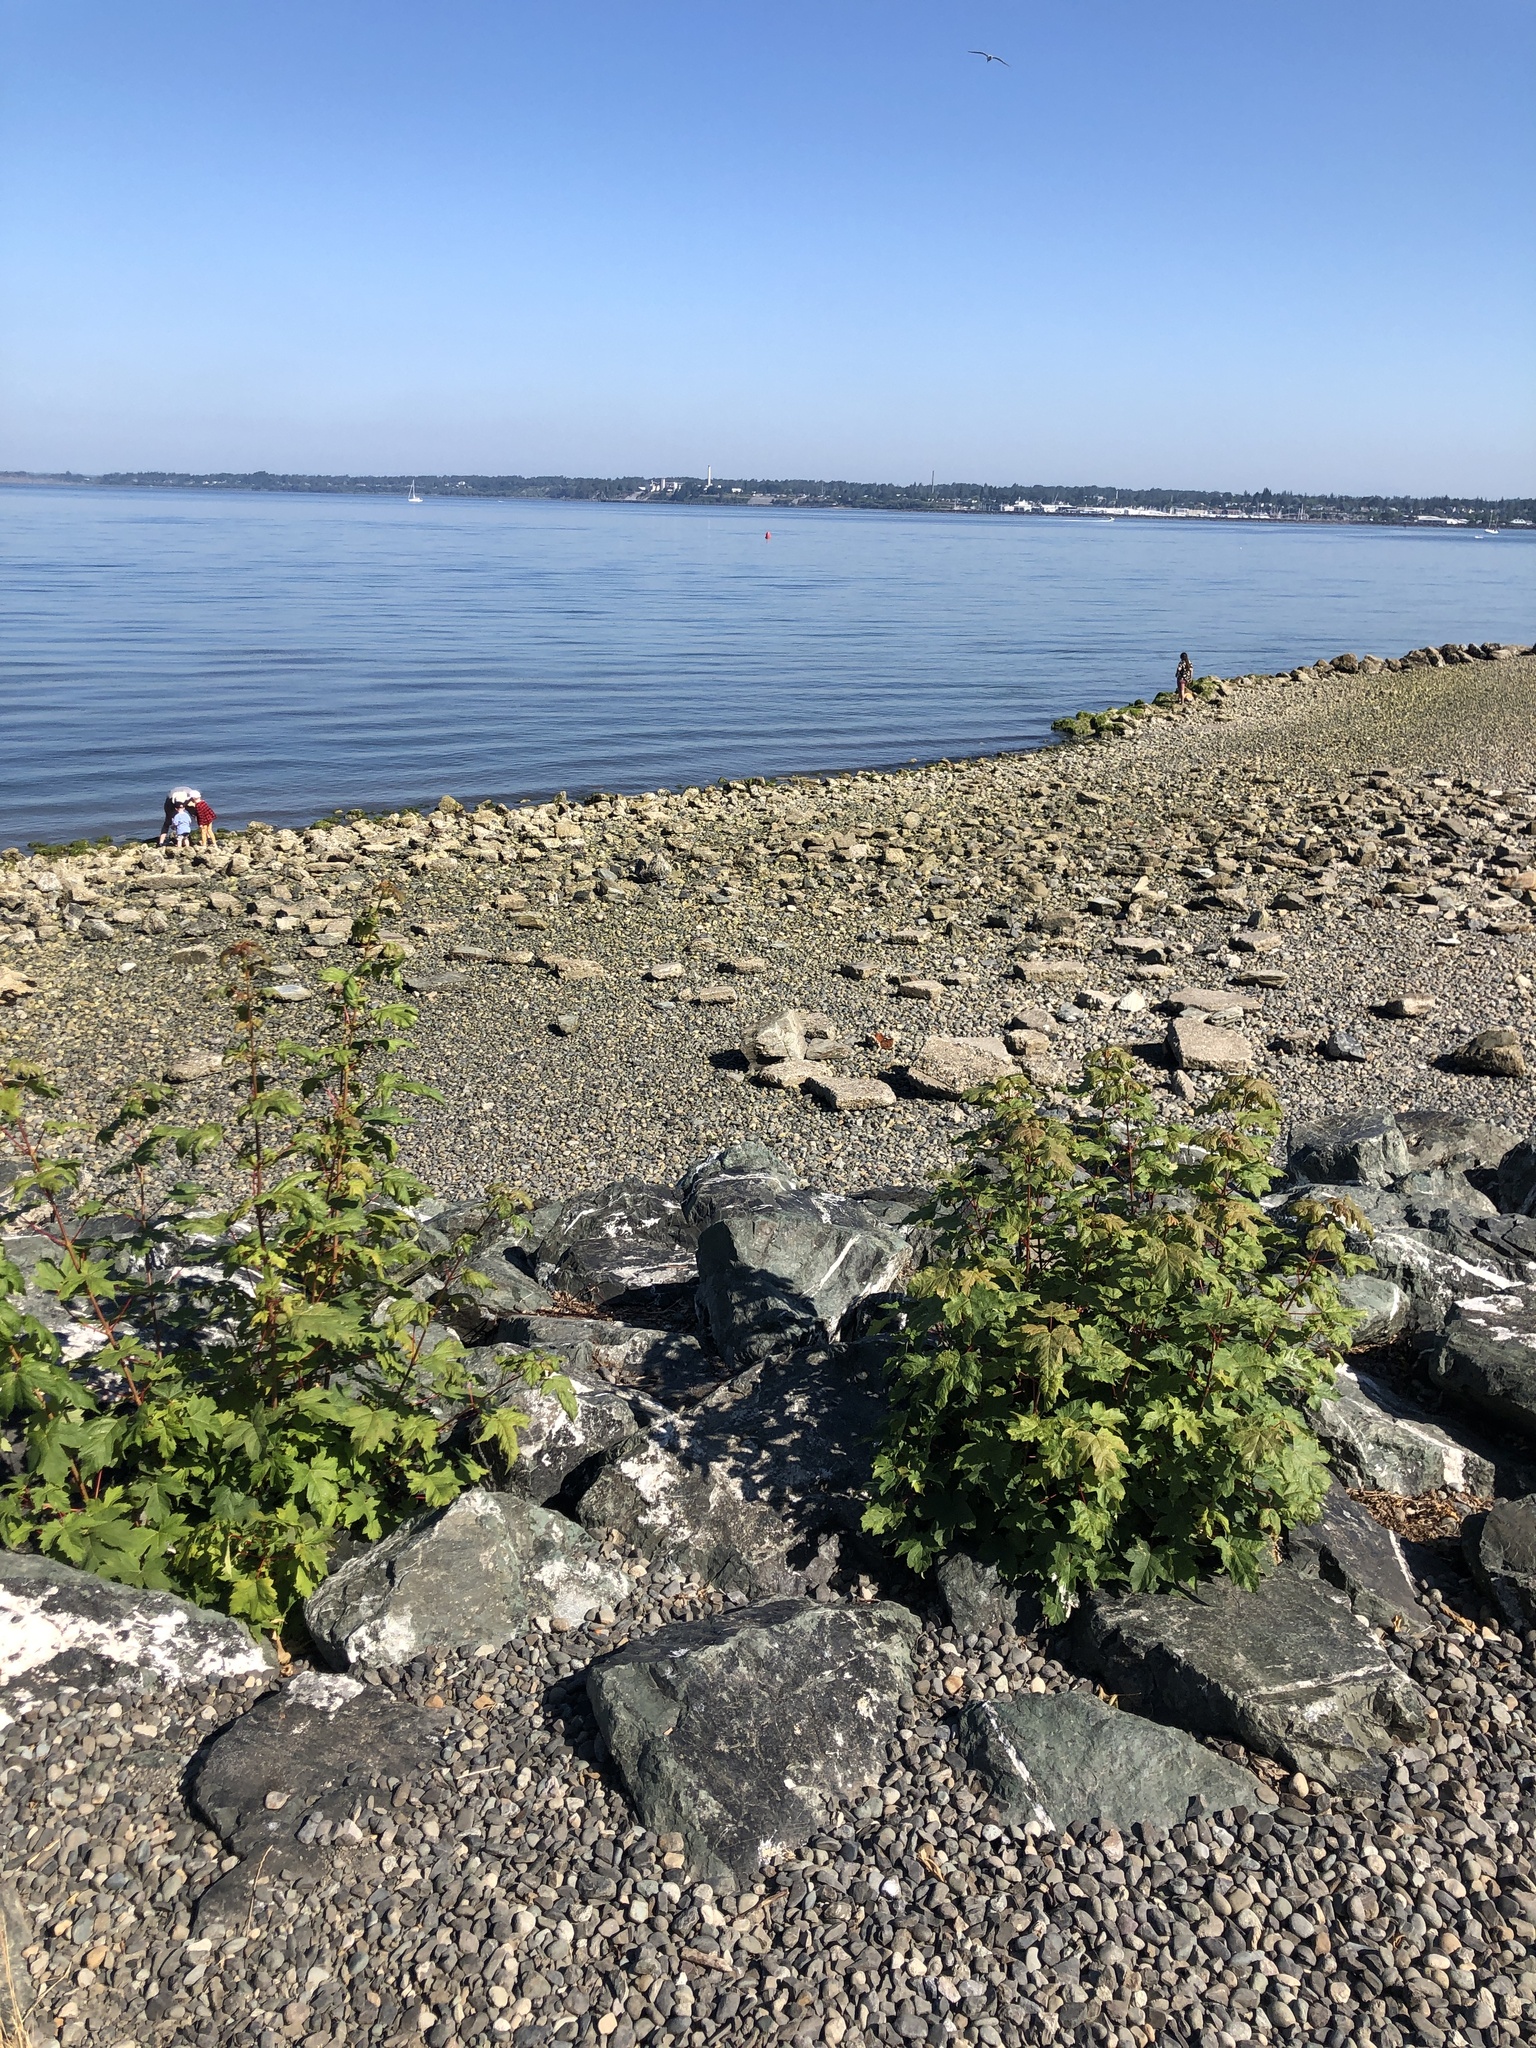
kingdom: Plantae
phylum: Tracheophyta
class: Magnoliopsida
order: Sapindales
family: Sapindaceae
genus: Acer
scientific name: Acer pseudoplatanus
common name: Sycamore
